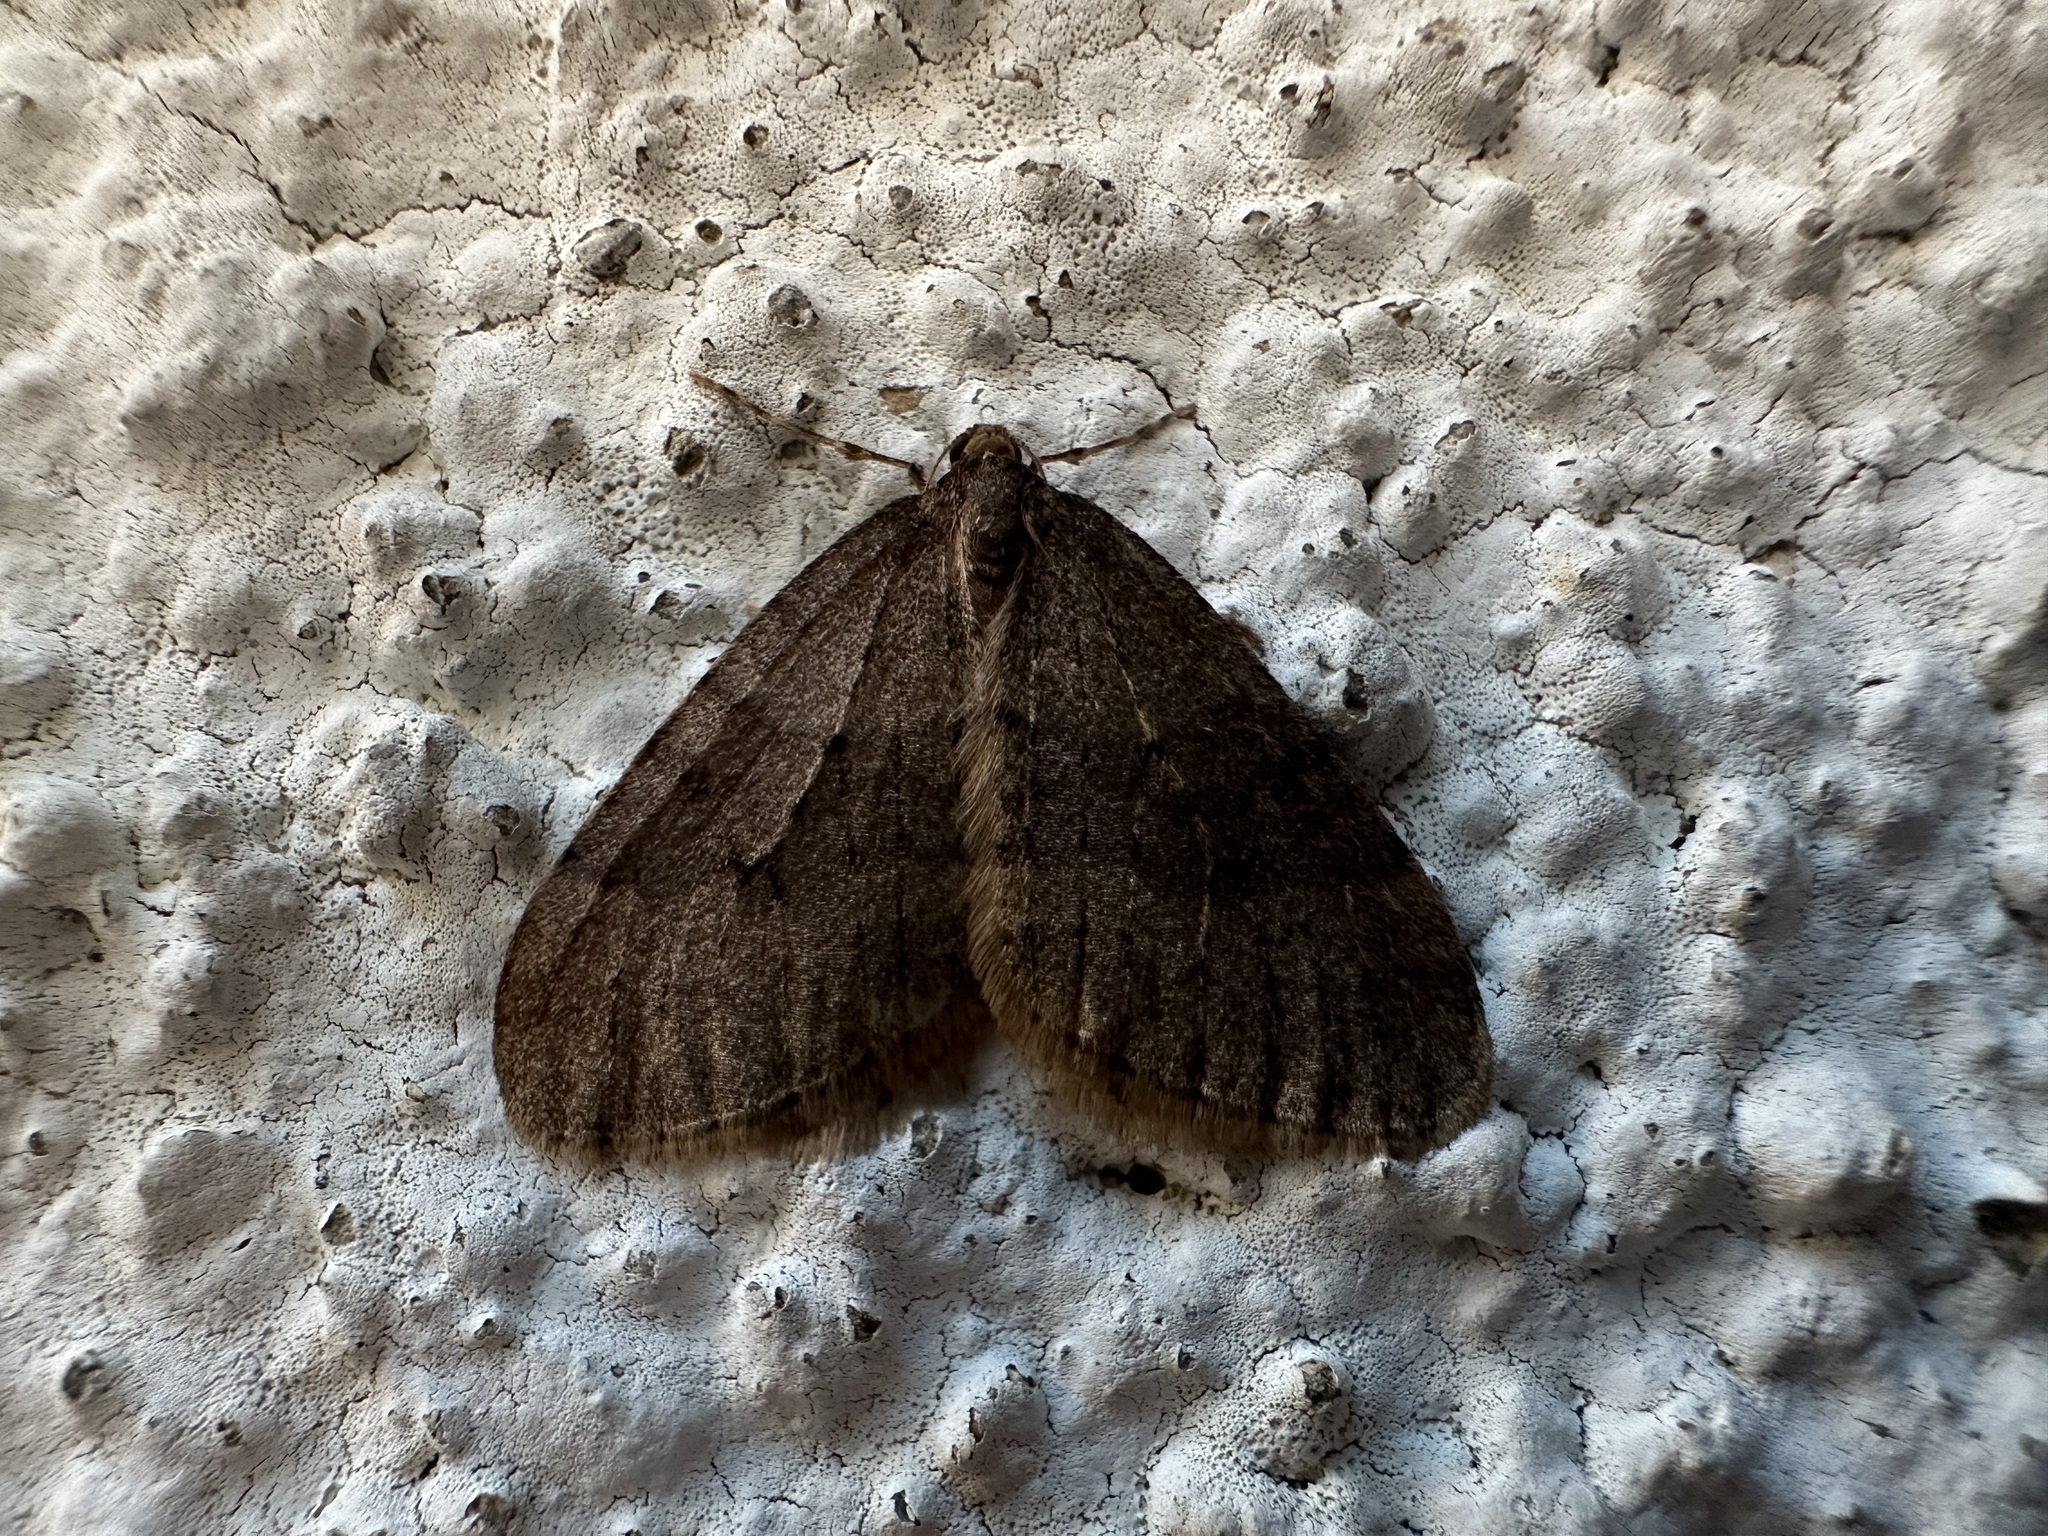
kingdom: Animalia
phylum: Arthropoda
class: Insecta
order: Lepidoptera
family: Geometridae
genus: Operophtera
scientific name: Operophtera brumata
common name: Winter moth
